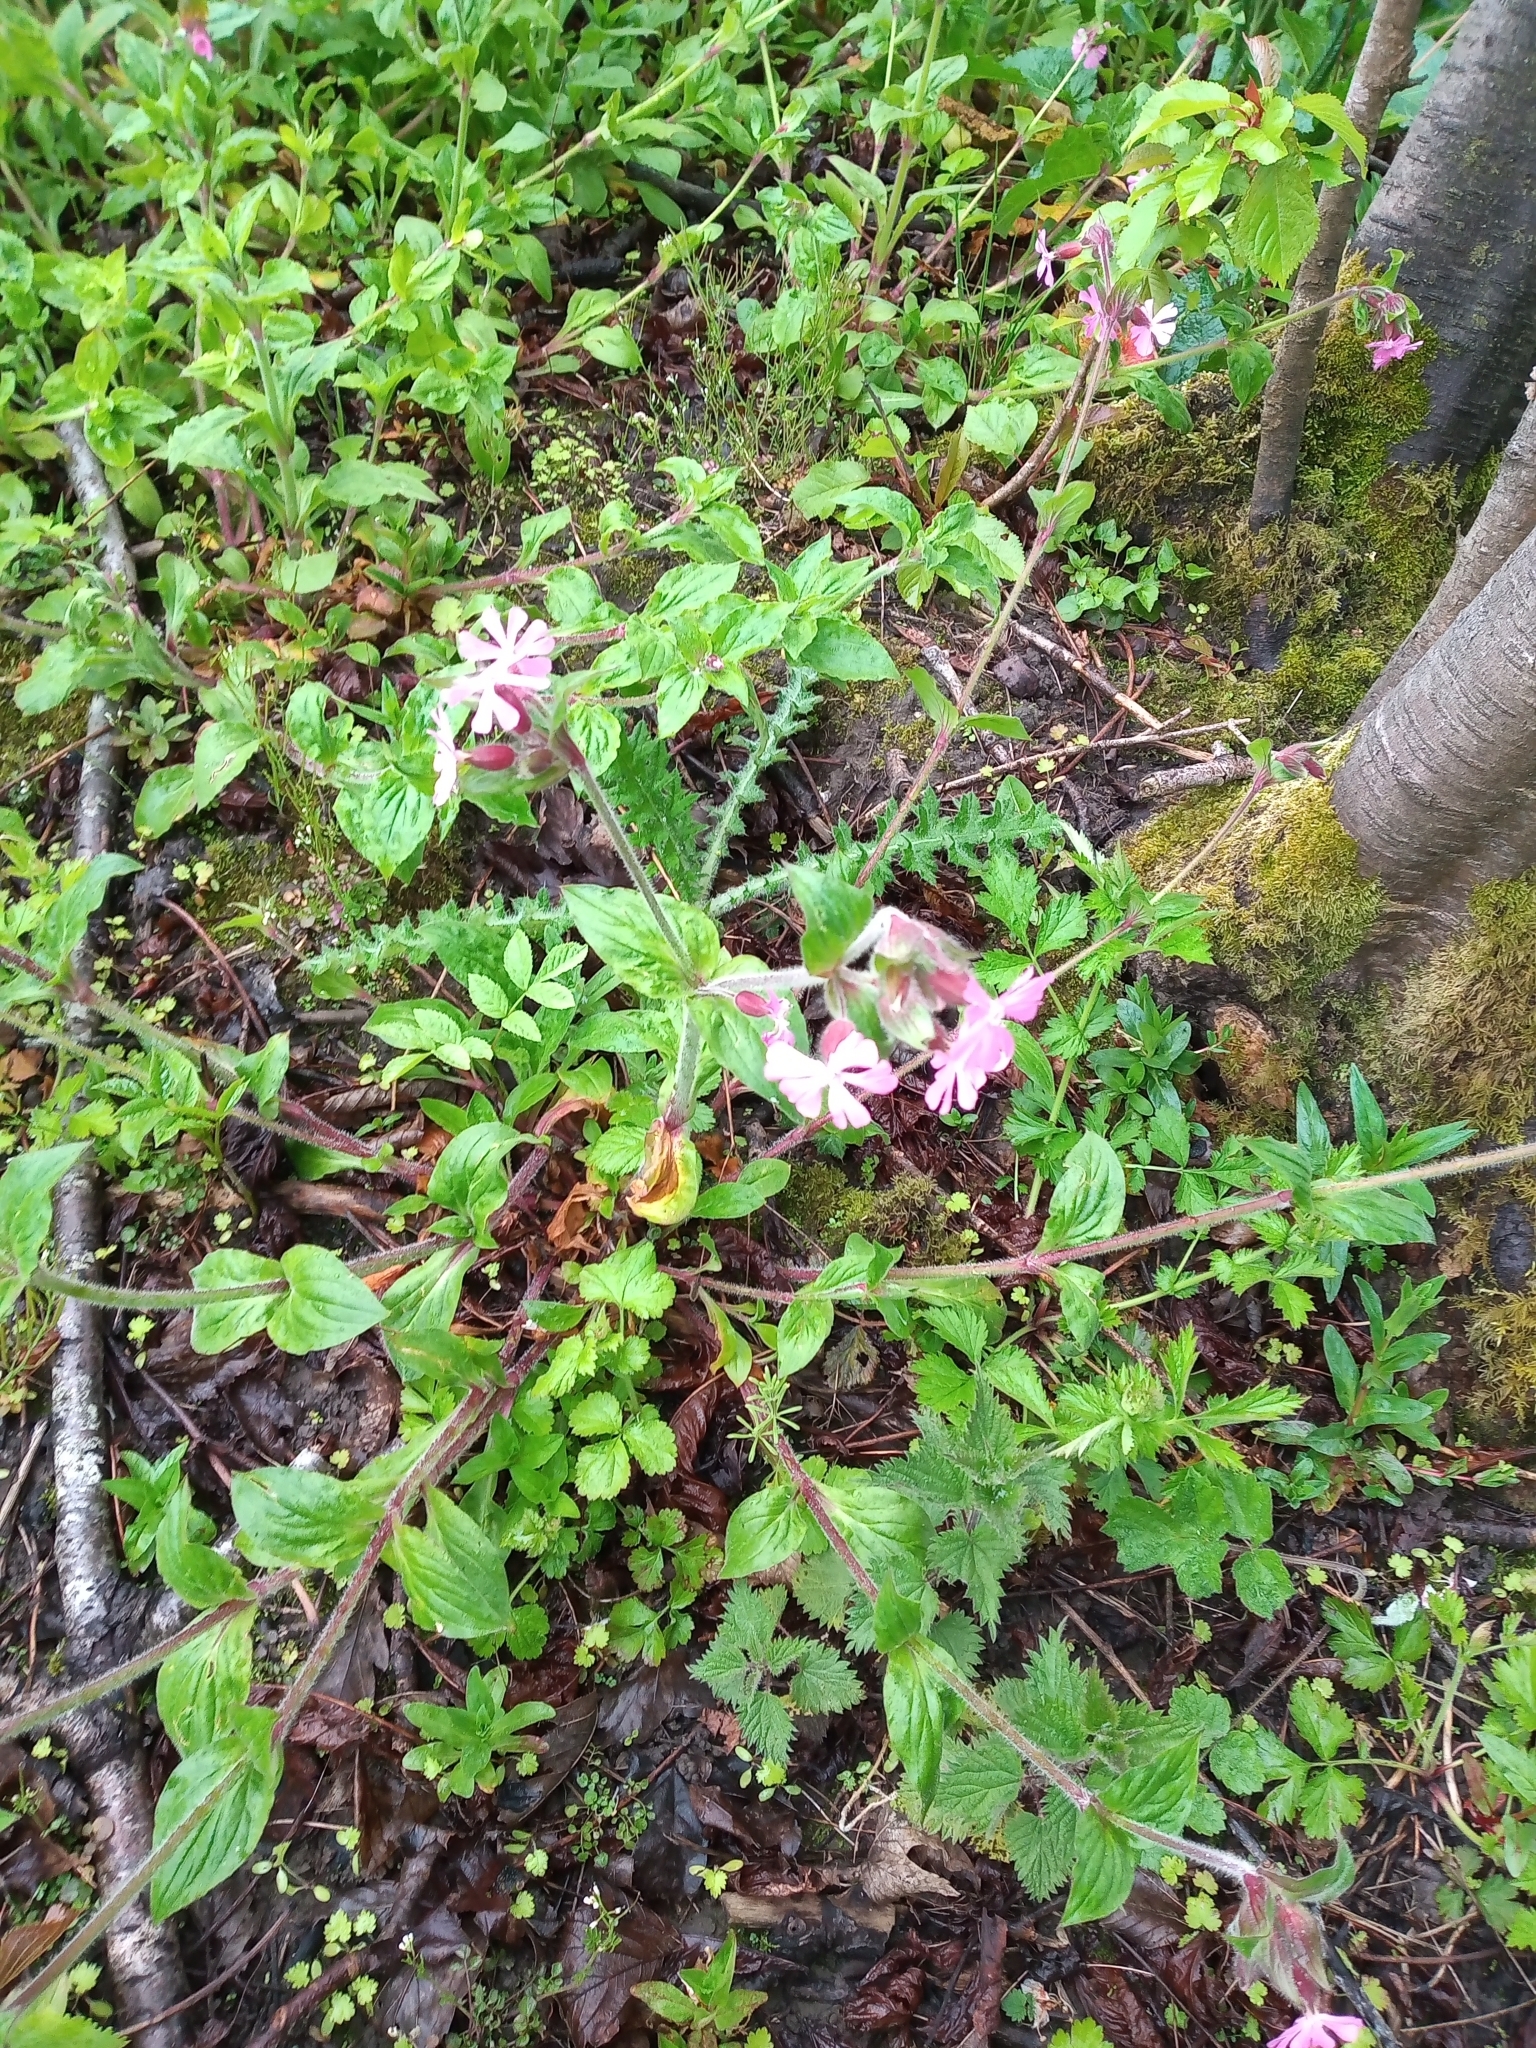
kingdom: Plantae
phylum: Tracheophyta
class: Magnoliopsida
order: Caryophyllales
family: Caryophyllaceae
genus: Silene
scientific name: Silene dioica
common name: Red campion
